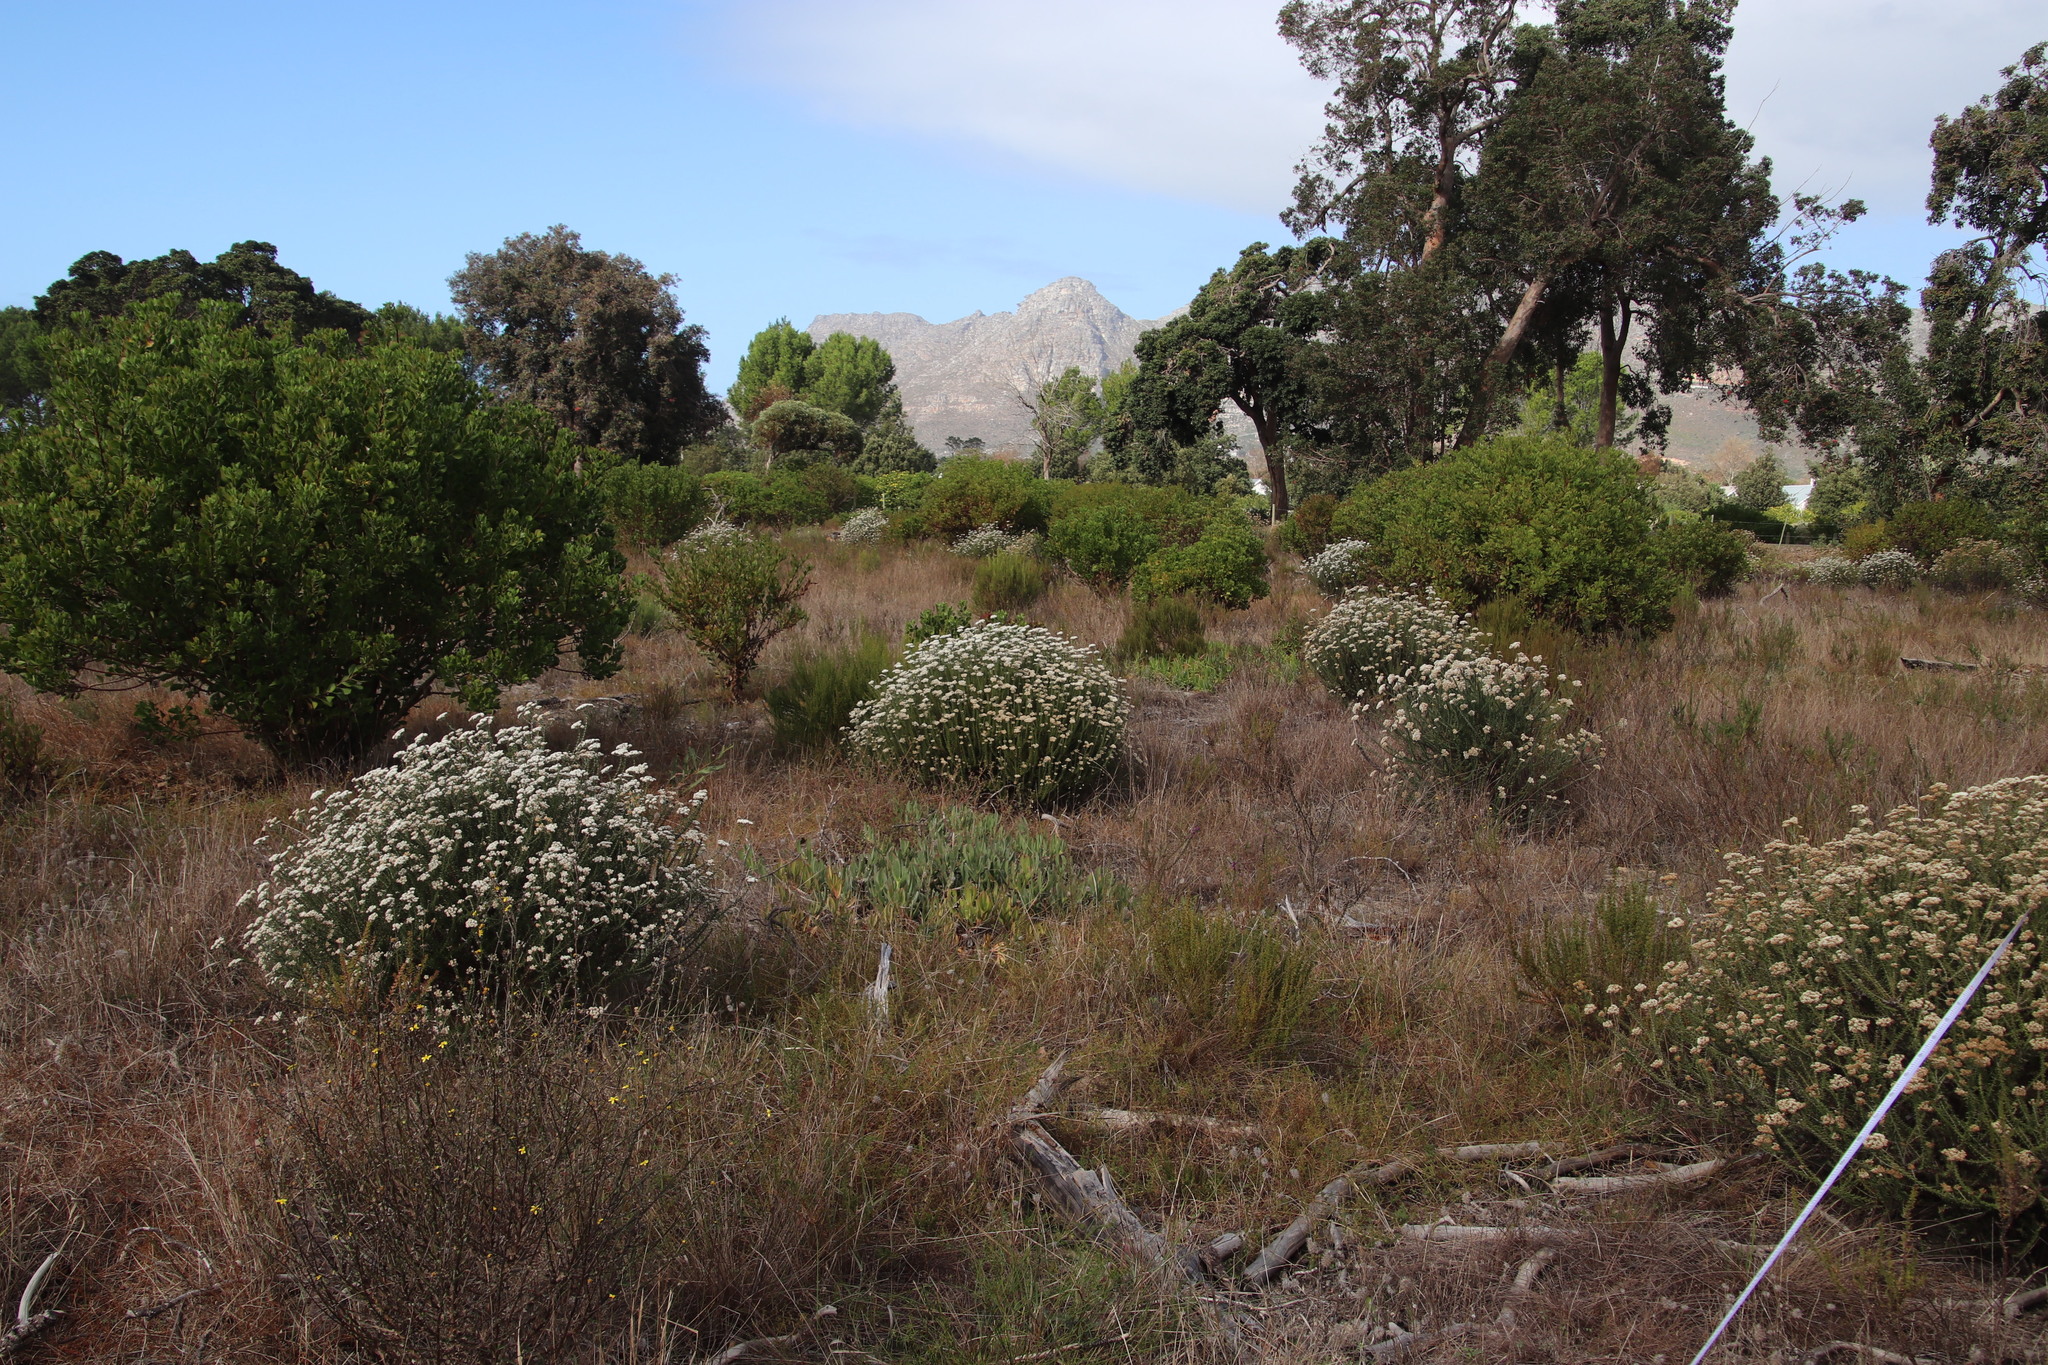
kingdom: Plantae
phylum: Tracheophyta
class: Magnoliopsida
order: Caryophyllales
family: Aizoaceae
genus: Carpobrotus
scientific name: Carpobrotus edulis
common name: Hottentot-fig
